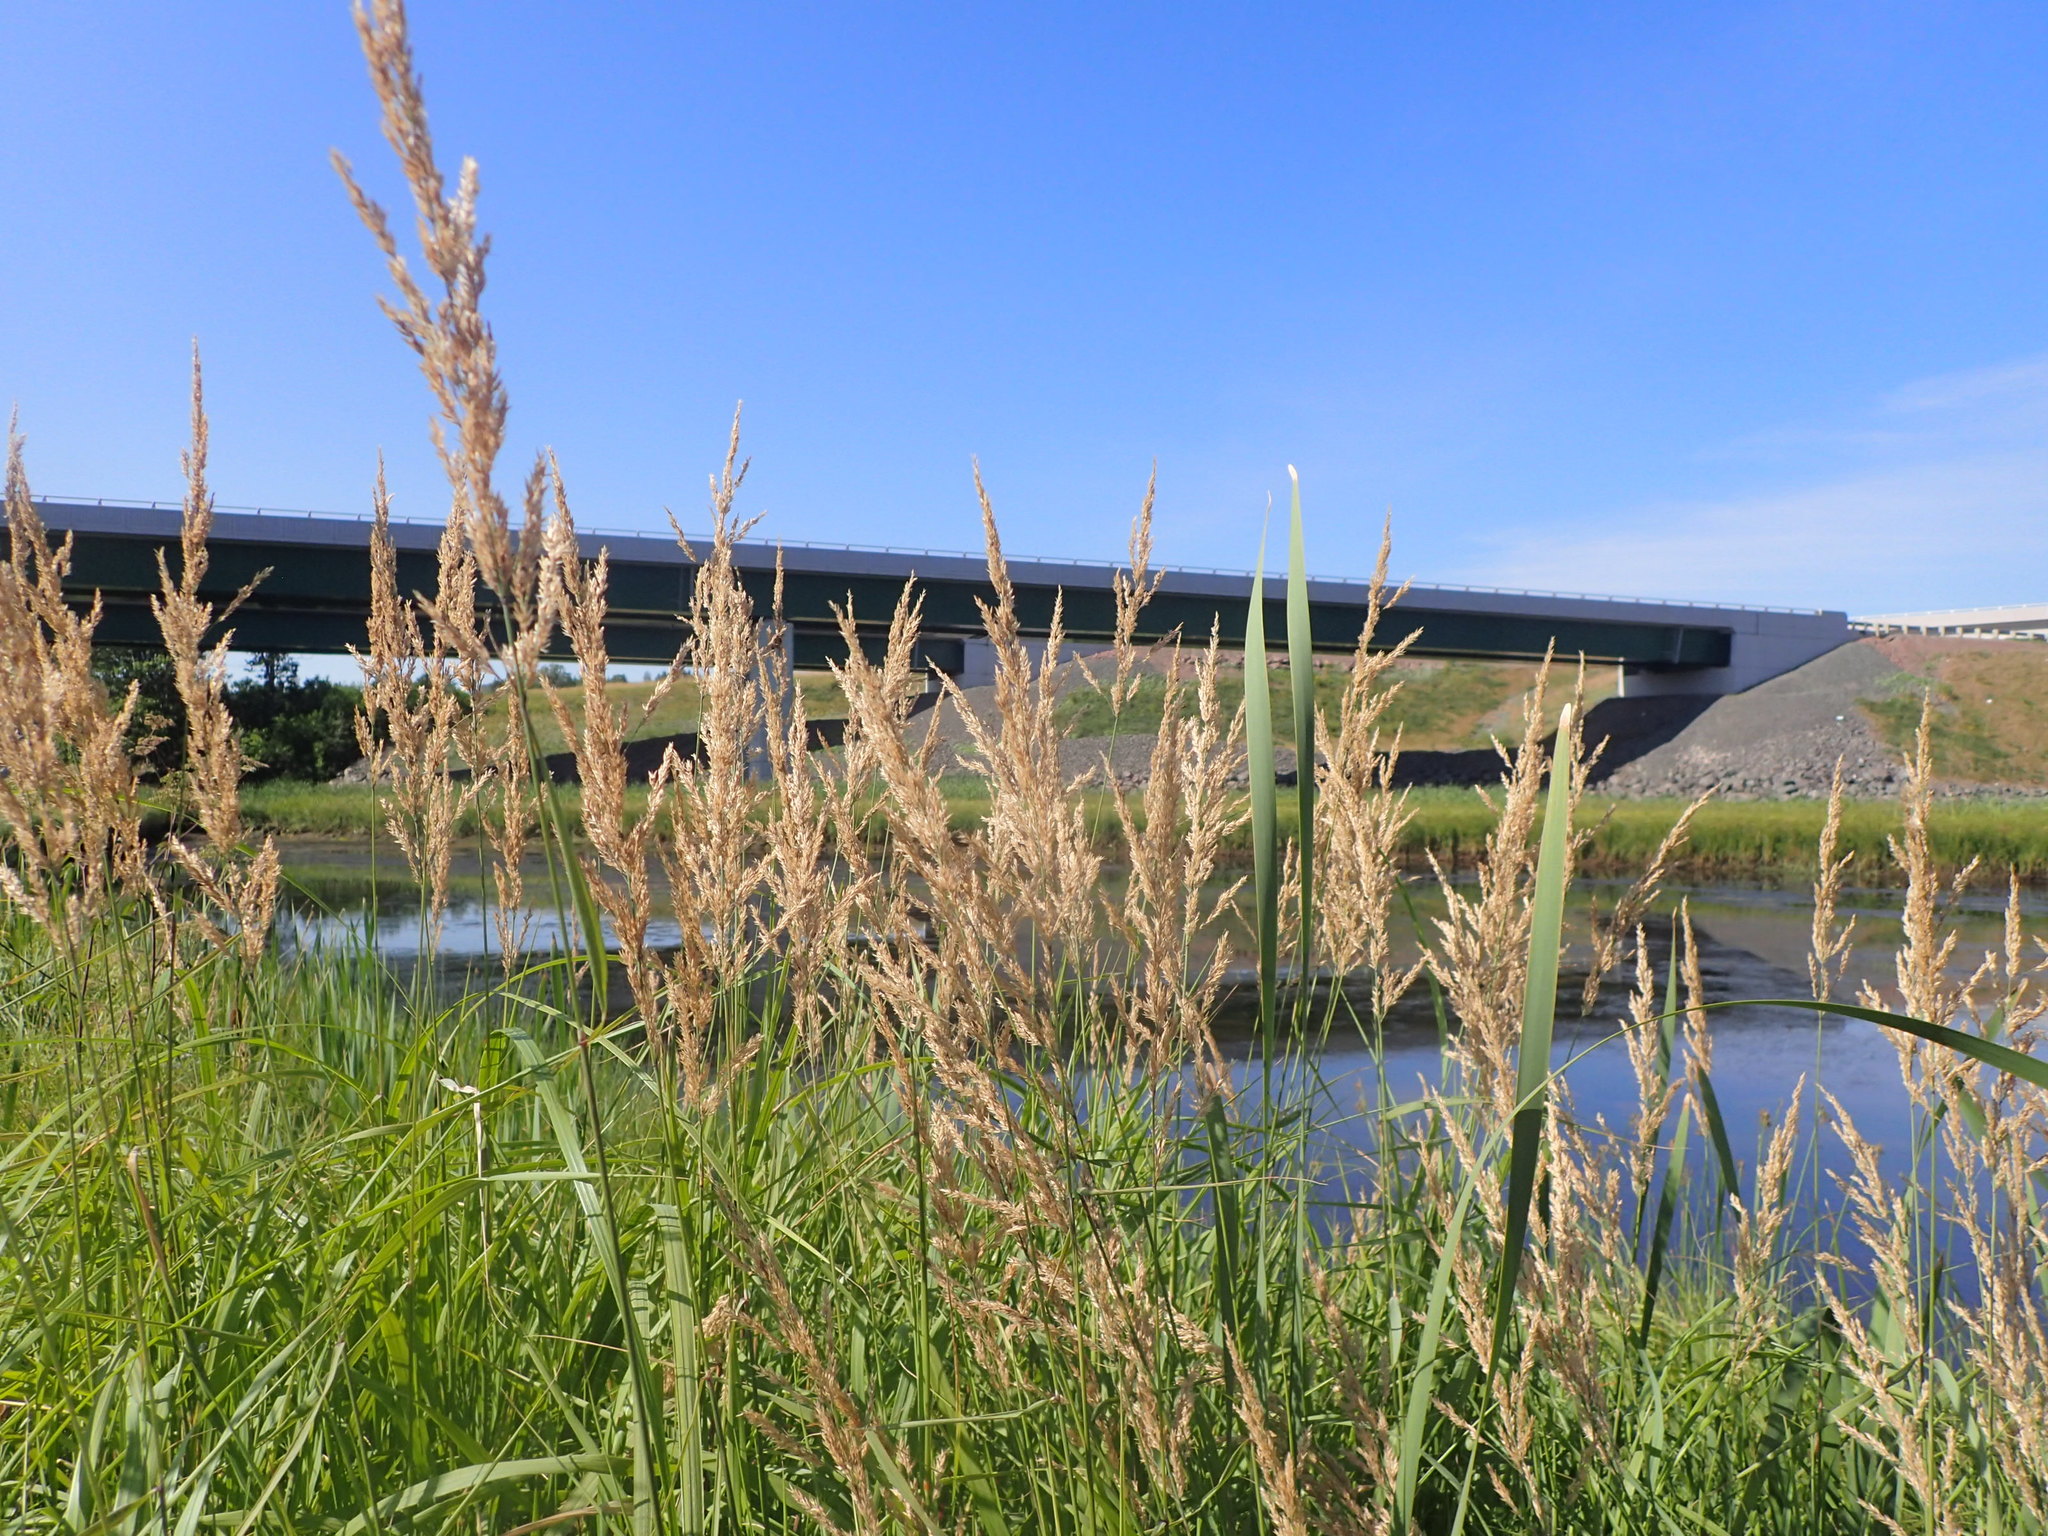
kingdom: Plantae
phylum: Tracheophyta
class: Liliopsida
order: Poales
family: Poaceae
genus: Calamagrostis
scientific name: Calamagrostis canadensis
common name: Canada bluejoint
